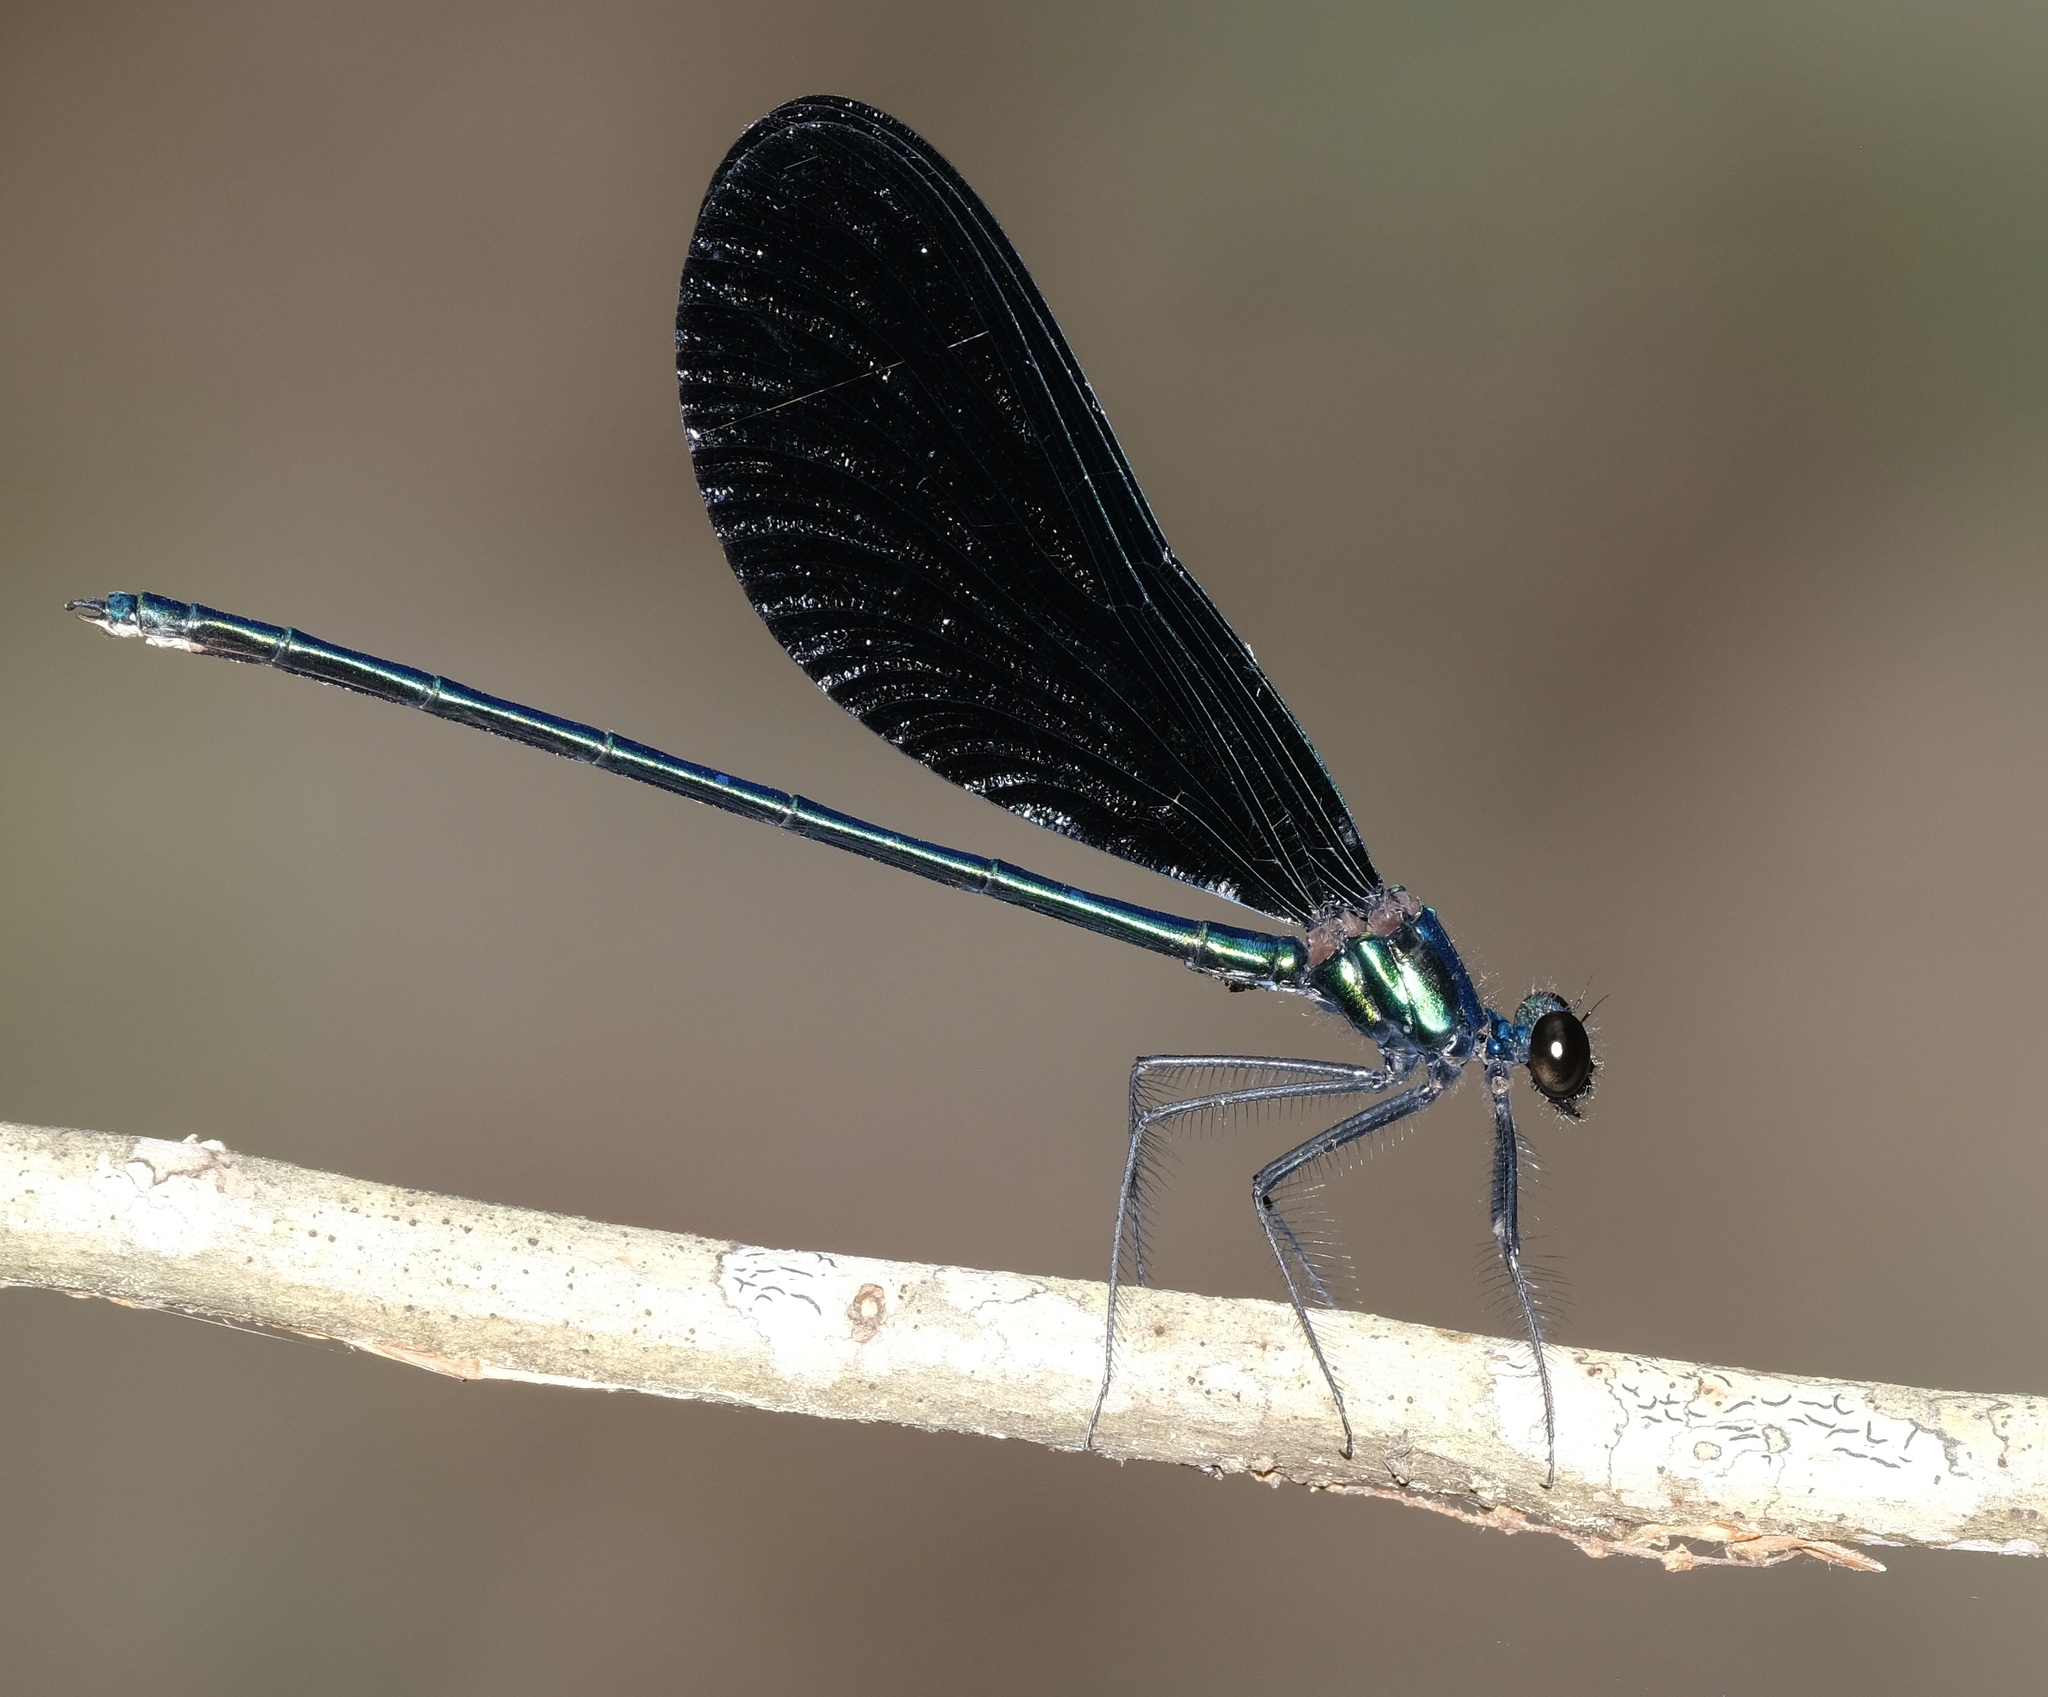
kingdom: Animalia
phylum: Arthropoda
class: Insecta
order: Odonata
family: Calopterygidae
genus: Calopteryx
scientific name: Calopteryx maculata
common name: Ebony jewelwing
